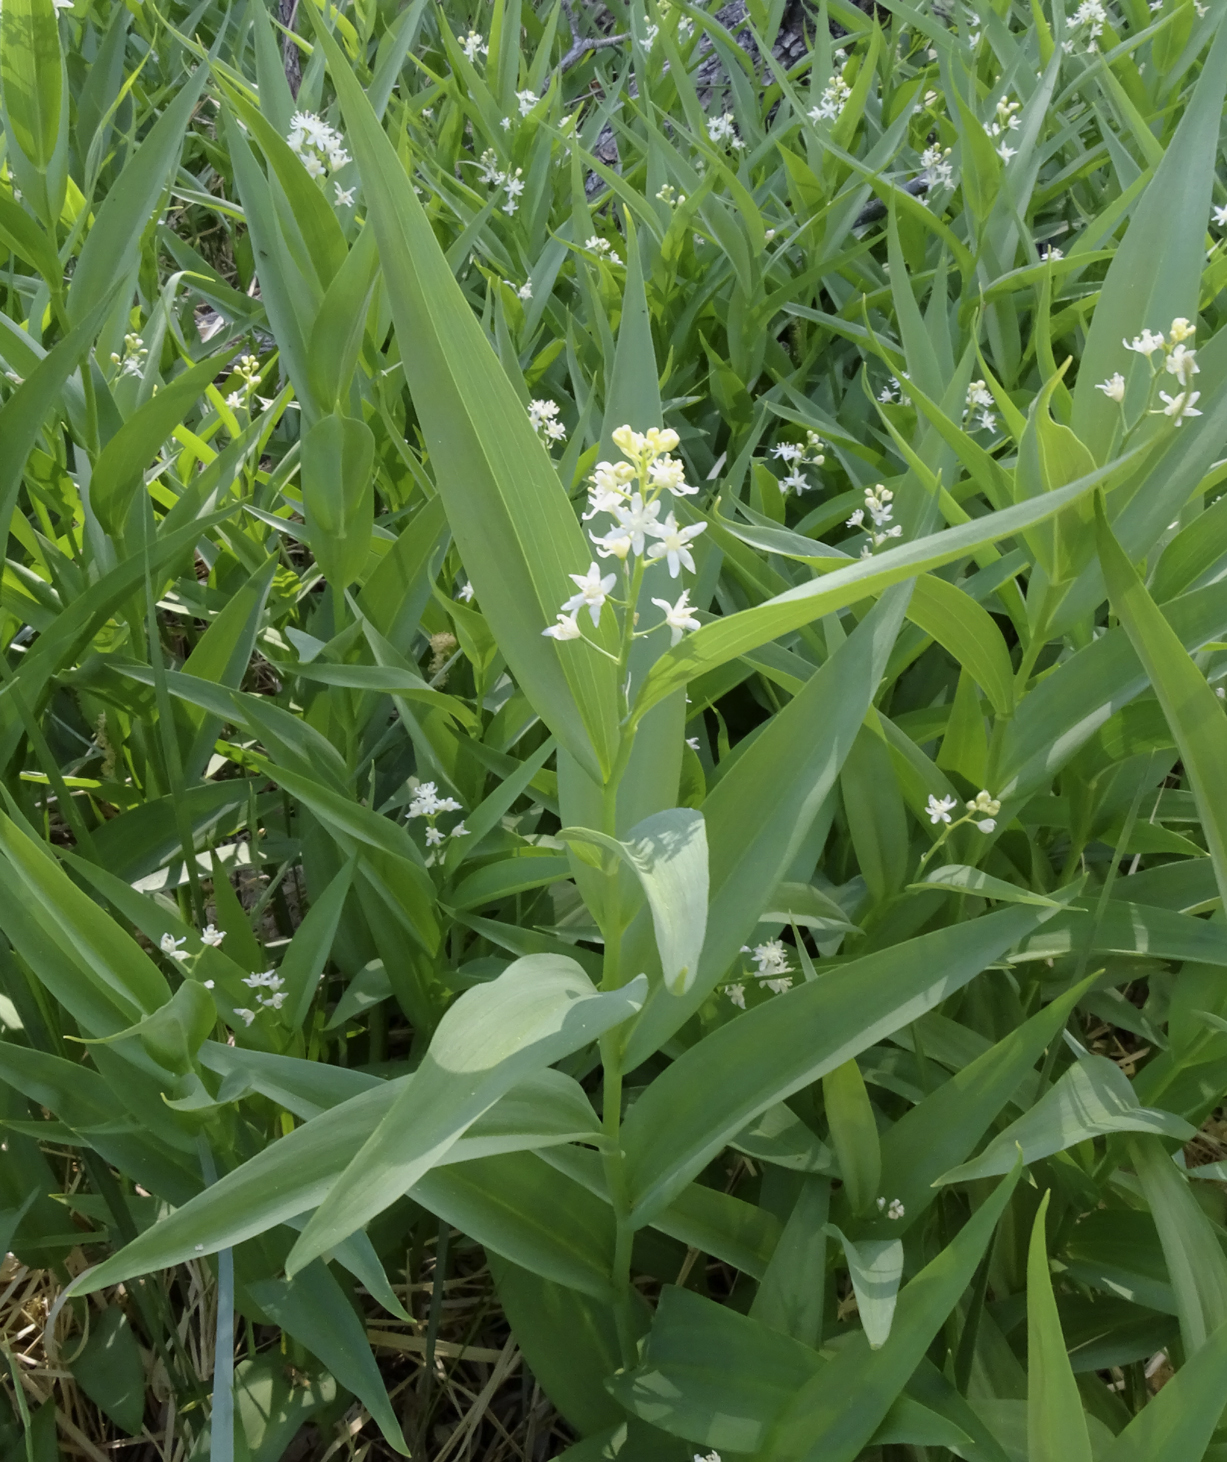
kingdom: Plantae
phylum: Tracheophyta
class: Liliopsida
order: Asparagales
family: Asparagaceae
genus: Maianthemum
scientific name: Maianthemum stellatum
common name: Little false solomon's seal
